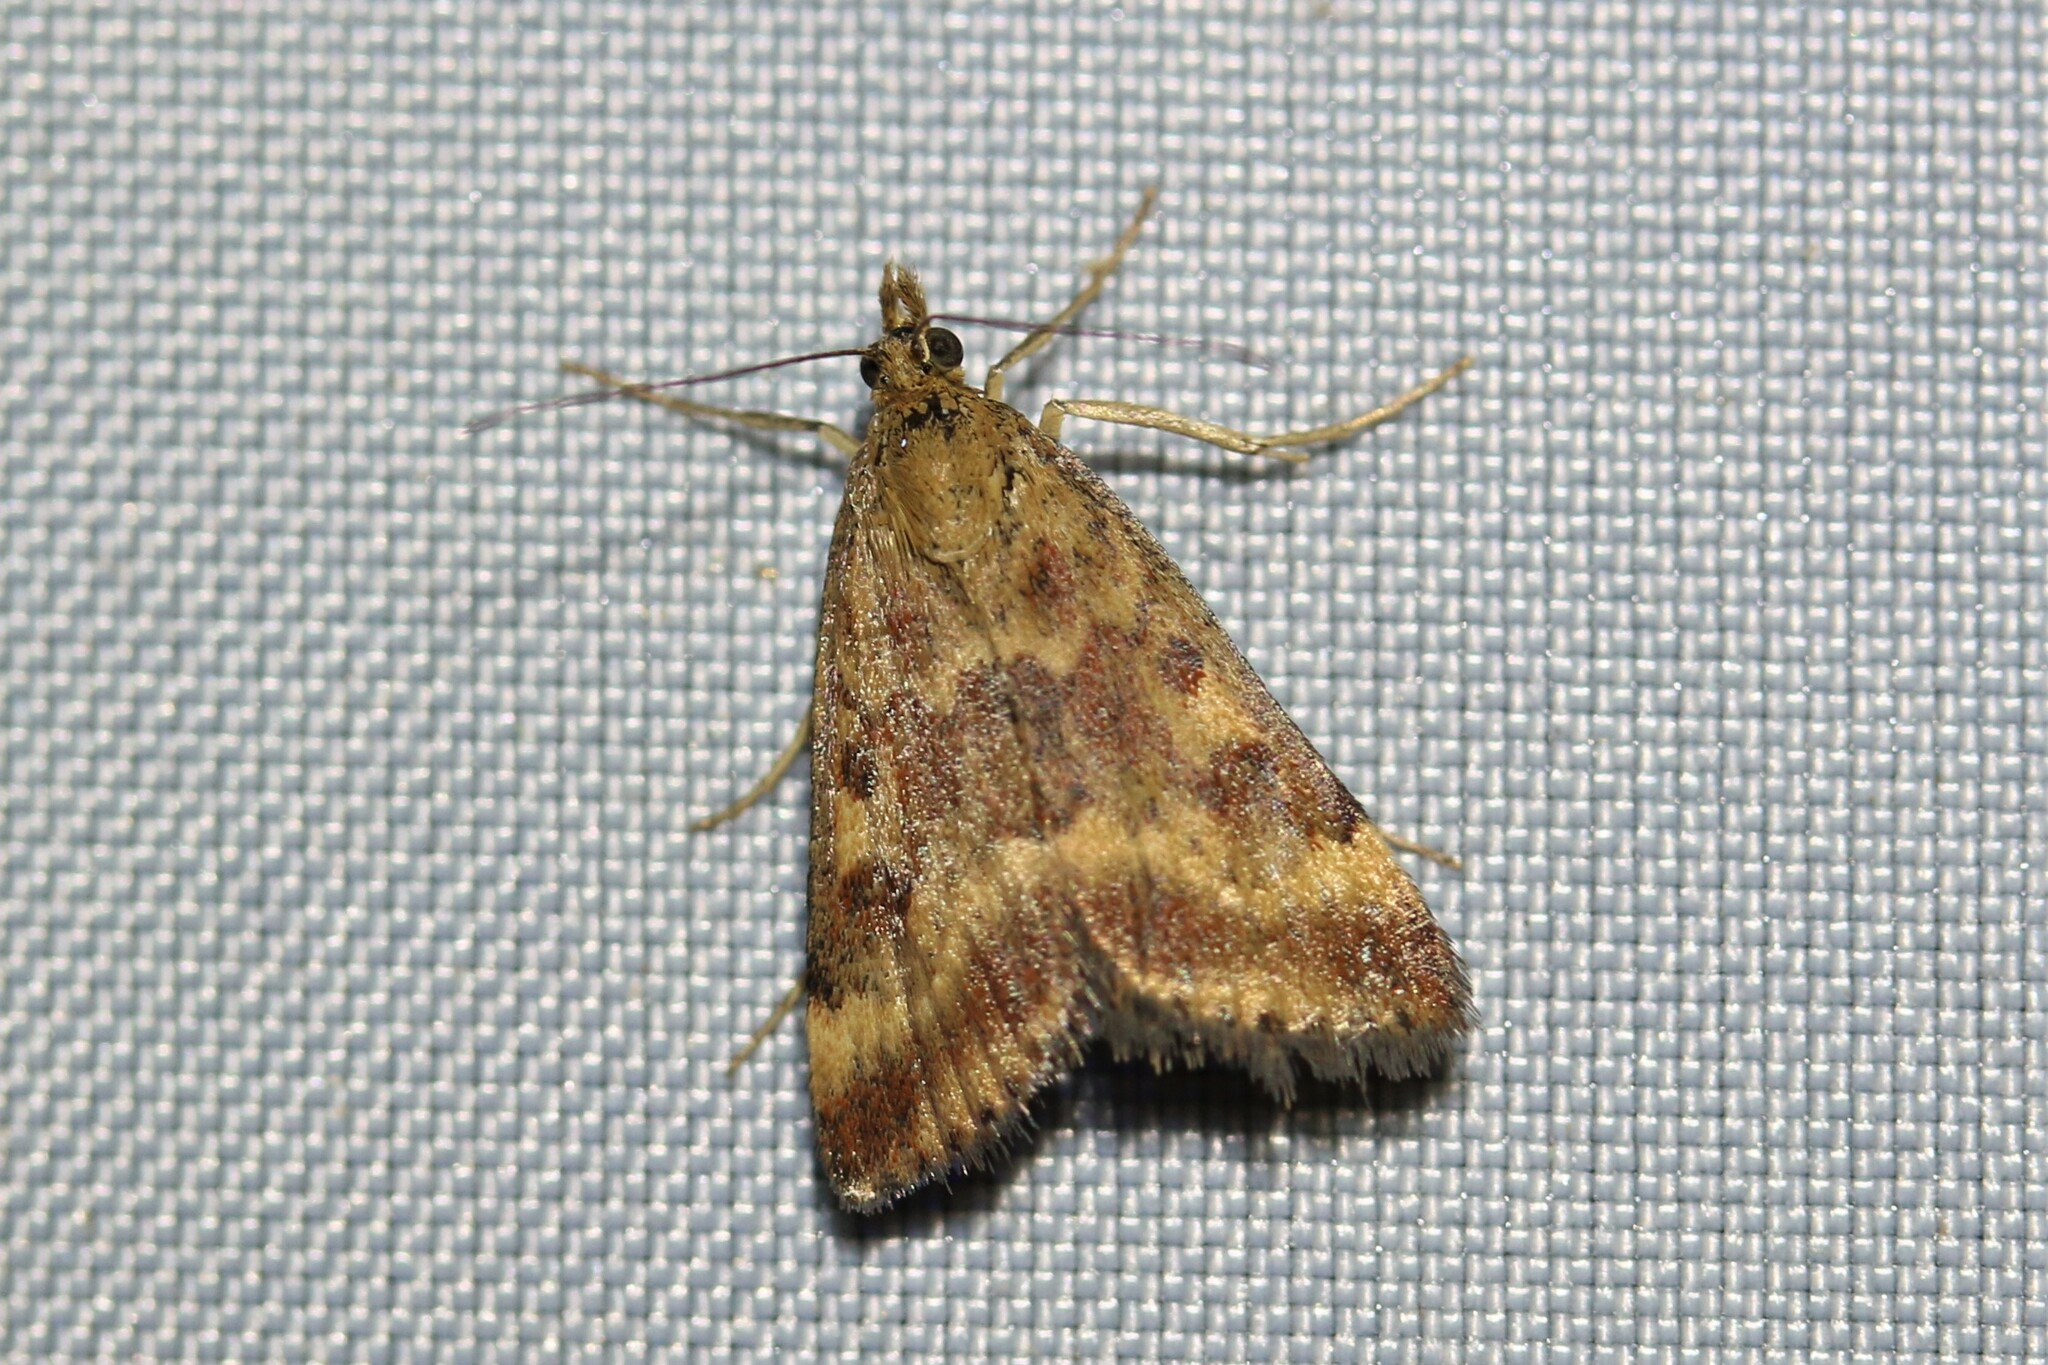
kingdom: Animalia
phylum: Arthropoda
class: Insecta
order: Lepidoptera
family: Crambidae
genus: Pyrausta
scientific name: Pyrausta despicata
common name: Straw-barred pearl
